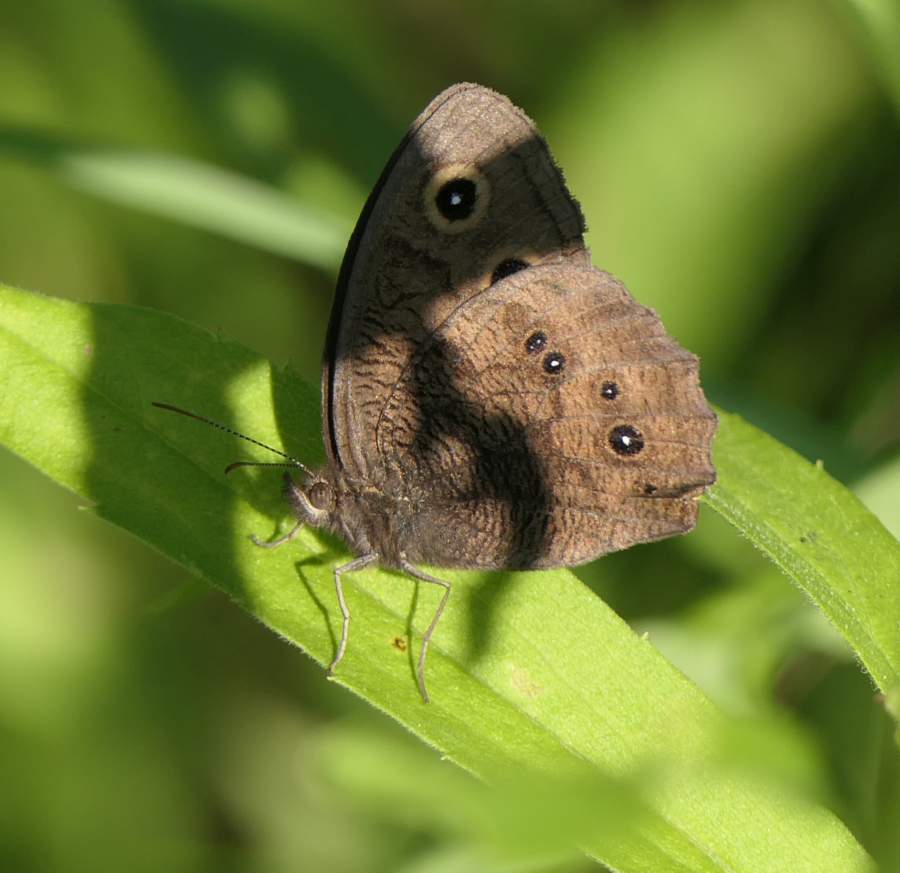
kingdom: Animalia
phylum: Arthropoda
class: Insecta
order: Lepidoptera
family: Nymphalidae
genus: Cercyonis
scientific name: Cercyonis pegala
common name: Common wood-nymph
